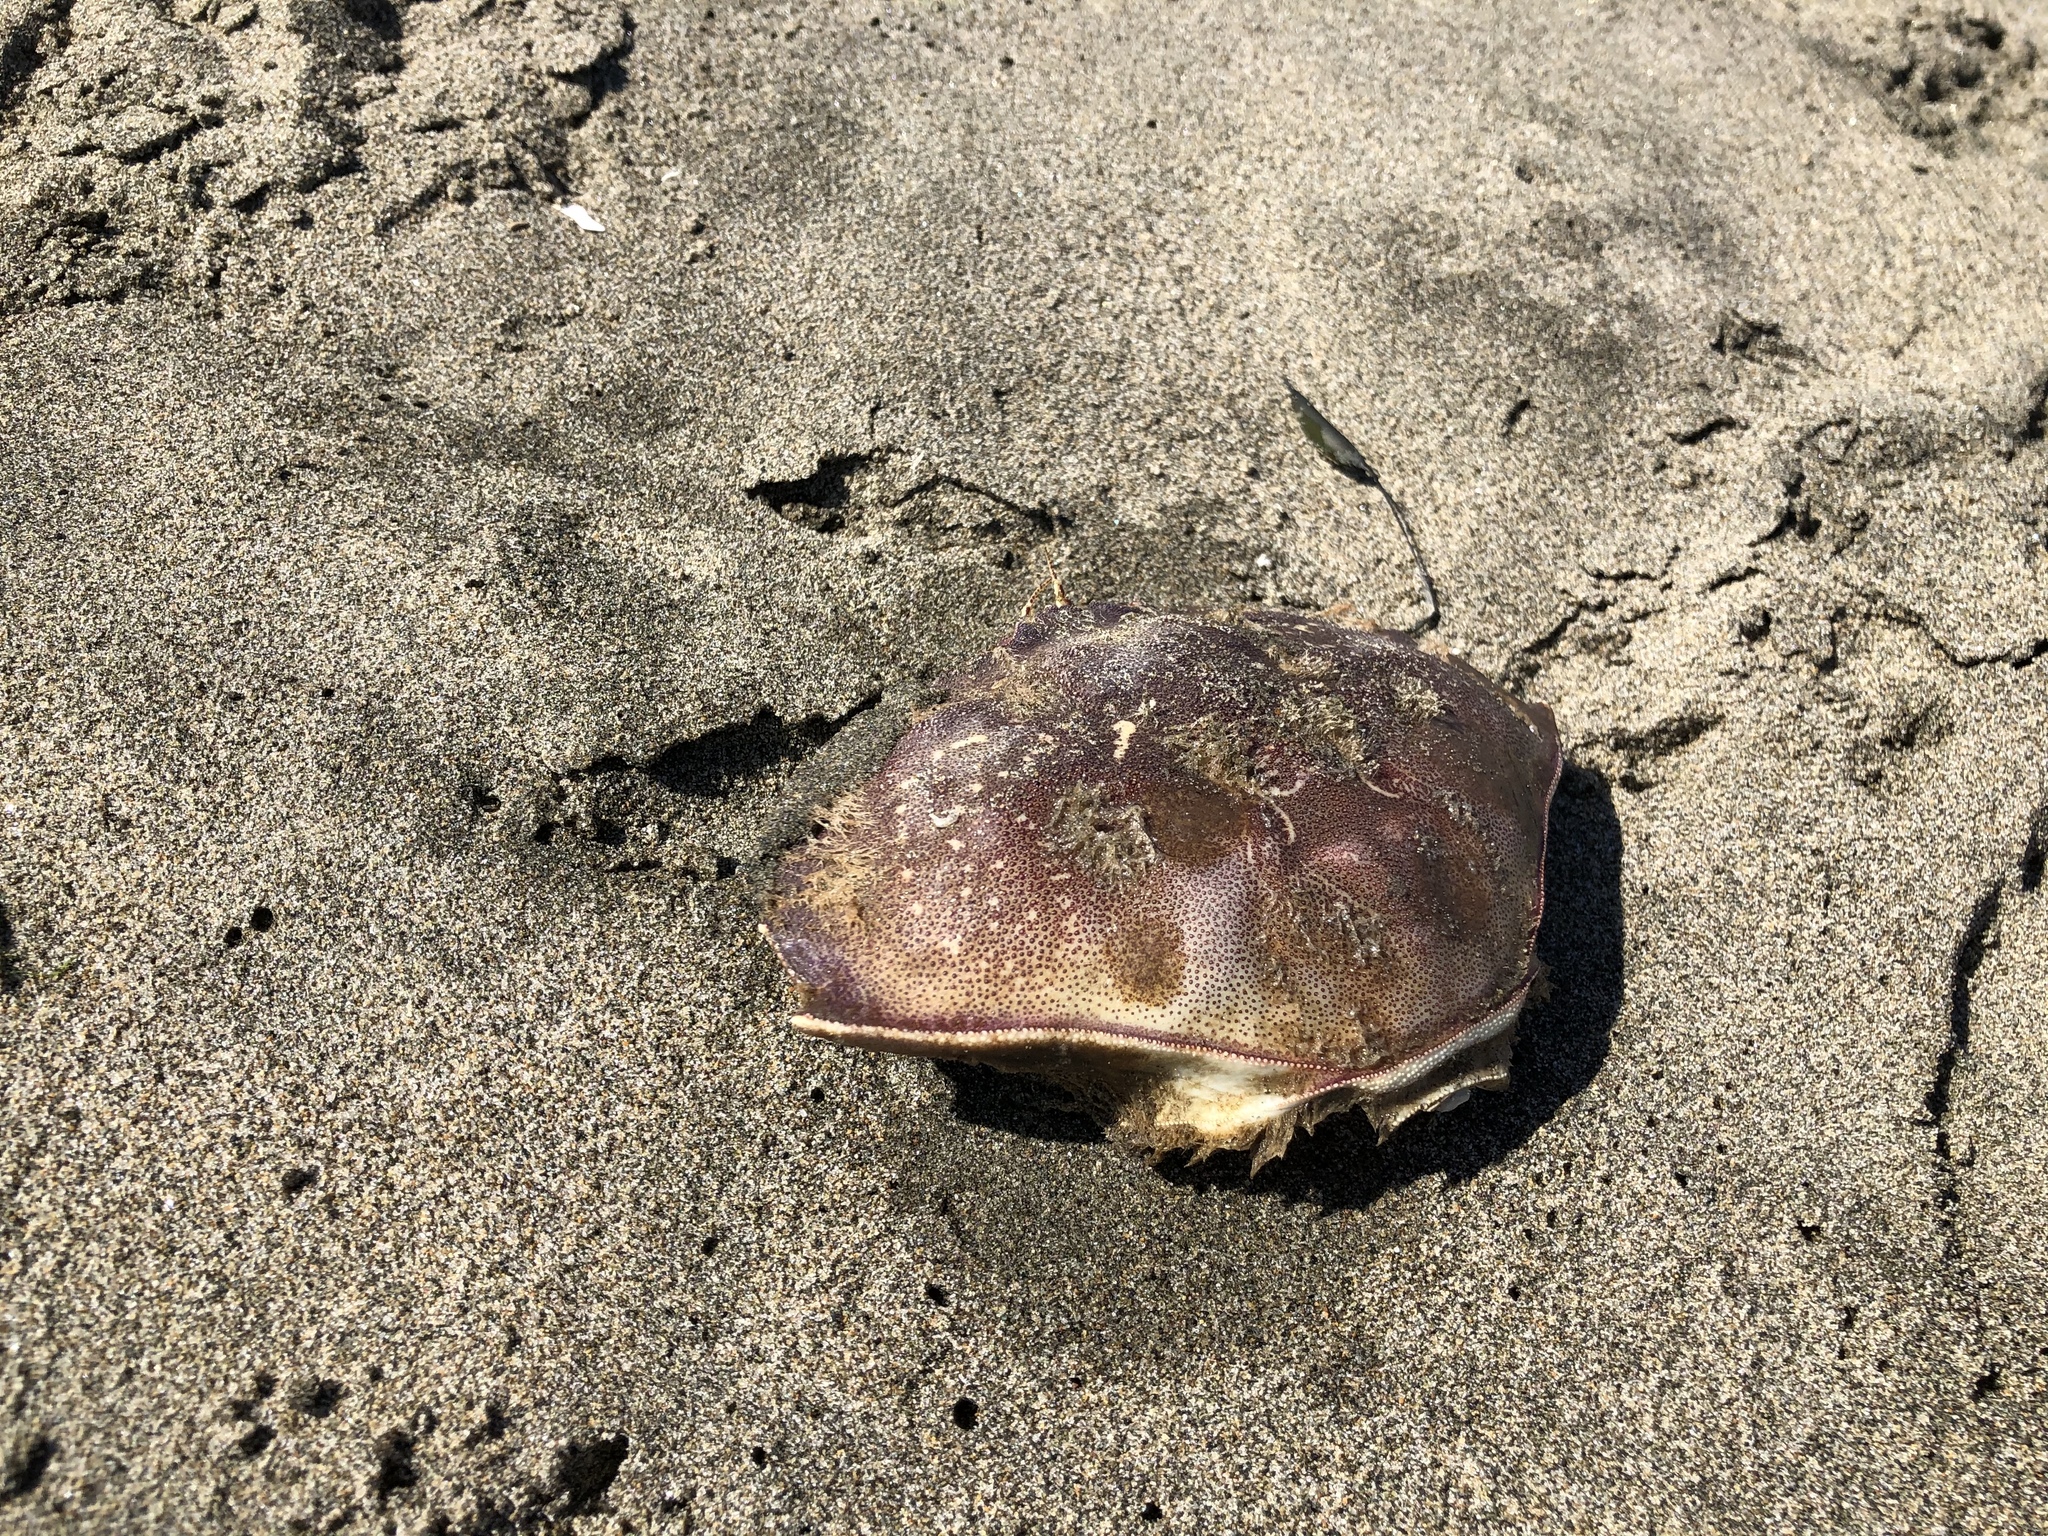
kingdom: Animalia
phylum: Arthropoda
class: Malacostraca
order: Decapoda
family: Cancridae
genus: Metacarcinus
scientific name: Metacarcinus magister
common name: Californian crab
